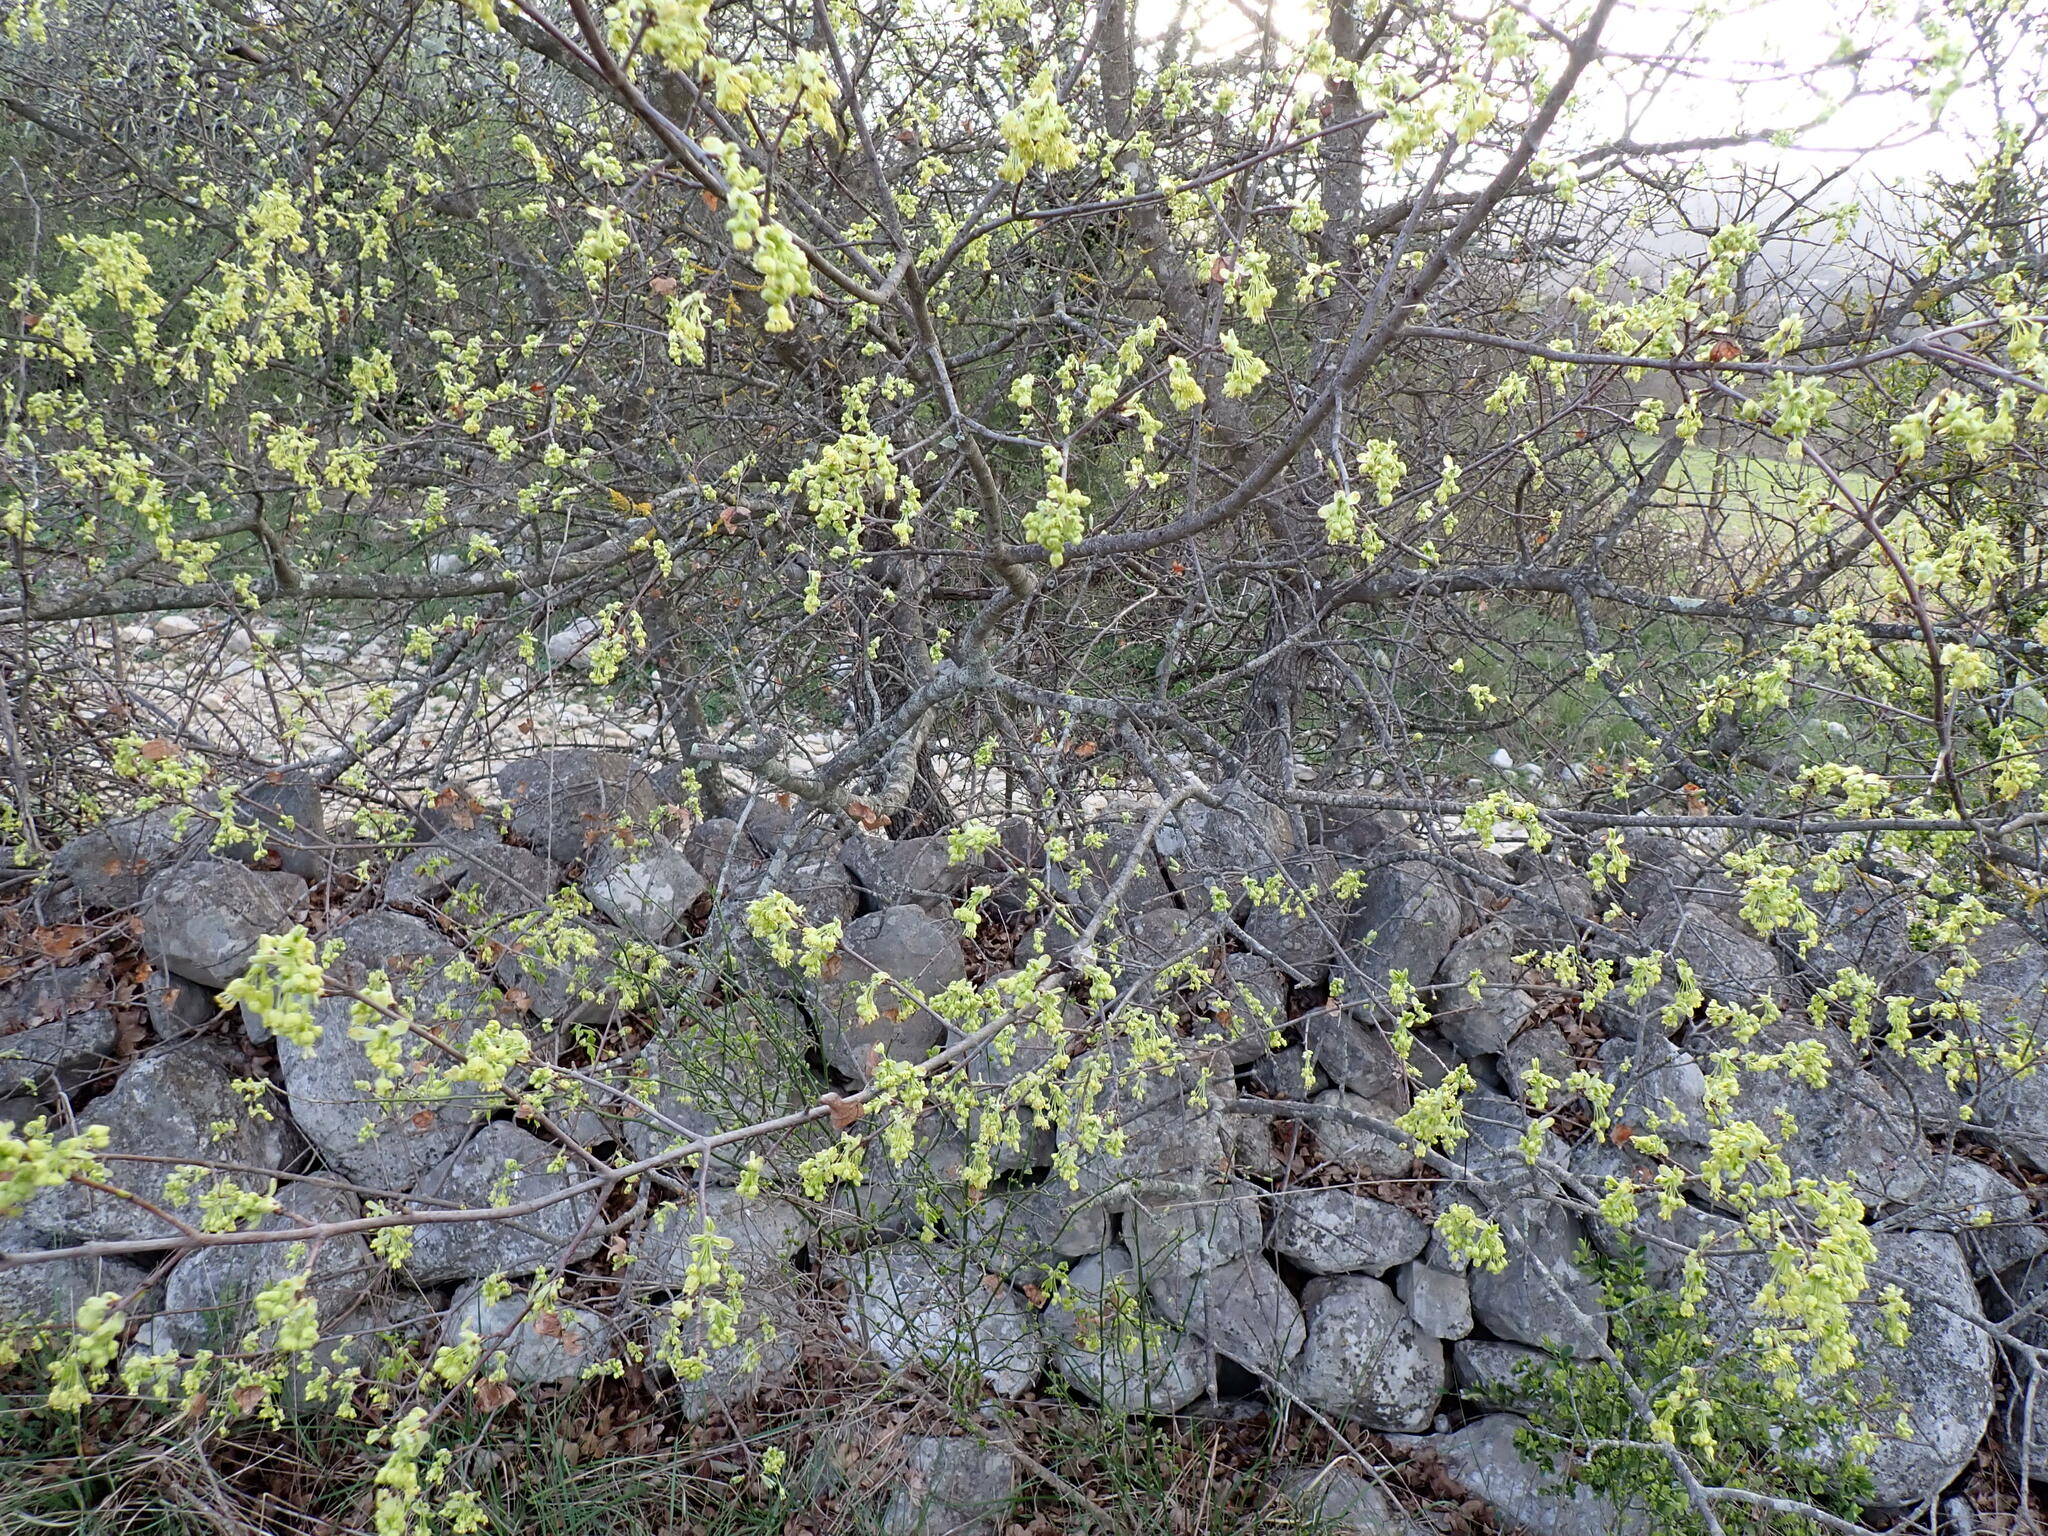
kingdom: Plantae
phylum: Tracheophyta
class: Magnoliopsida
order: Sapindales
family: Sapindaceae
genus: Acer
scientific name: Acer monspessulanum
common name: Montpellier maple
